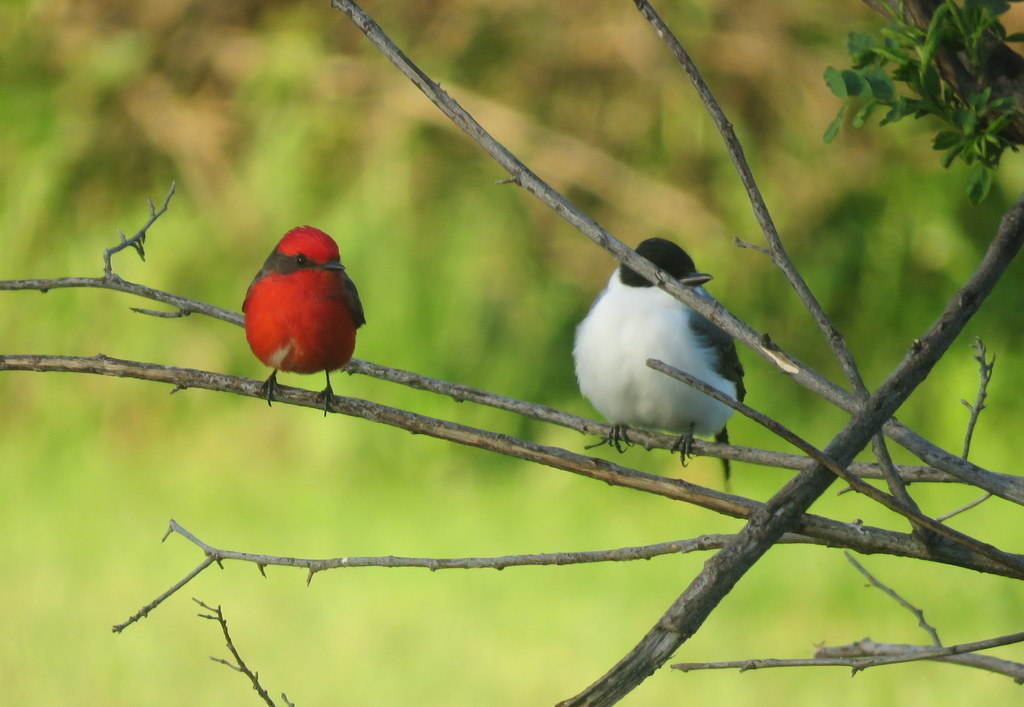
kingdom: Animalia
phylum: Chordata
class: Aves
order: Passeriformes
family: Tyrannidae
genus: Pyrocephalus
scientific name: Pyrocephalus rubinus
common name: Vermilion flycatcher
